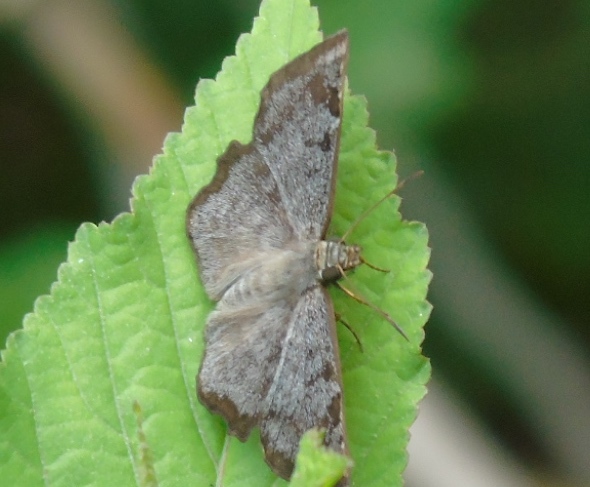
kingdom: Animalia
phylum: Arthropoda
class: Insecta
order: Lepidoptera
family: Hesperiidae
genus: Antigonus
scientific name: Antigonus erosus
